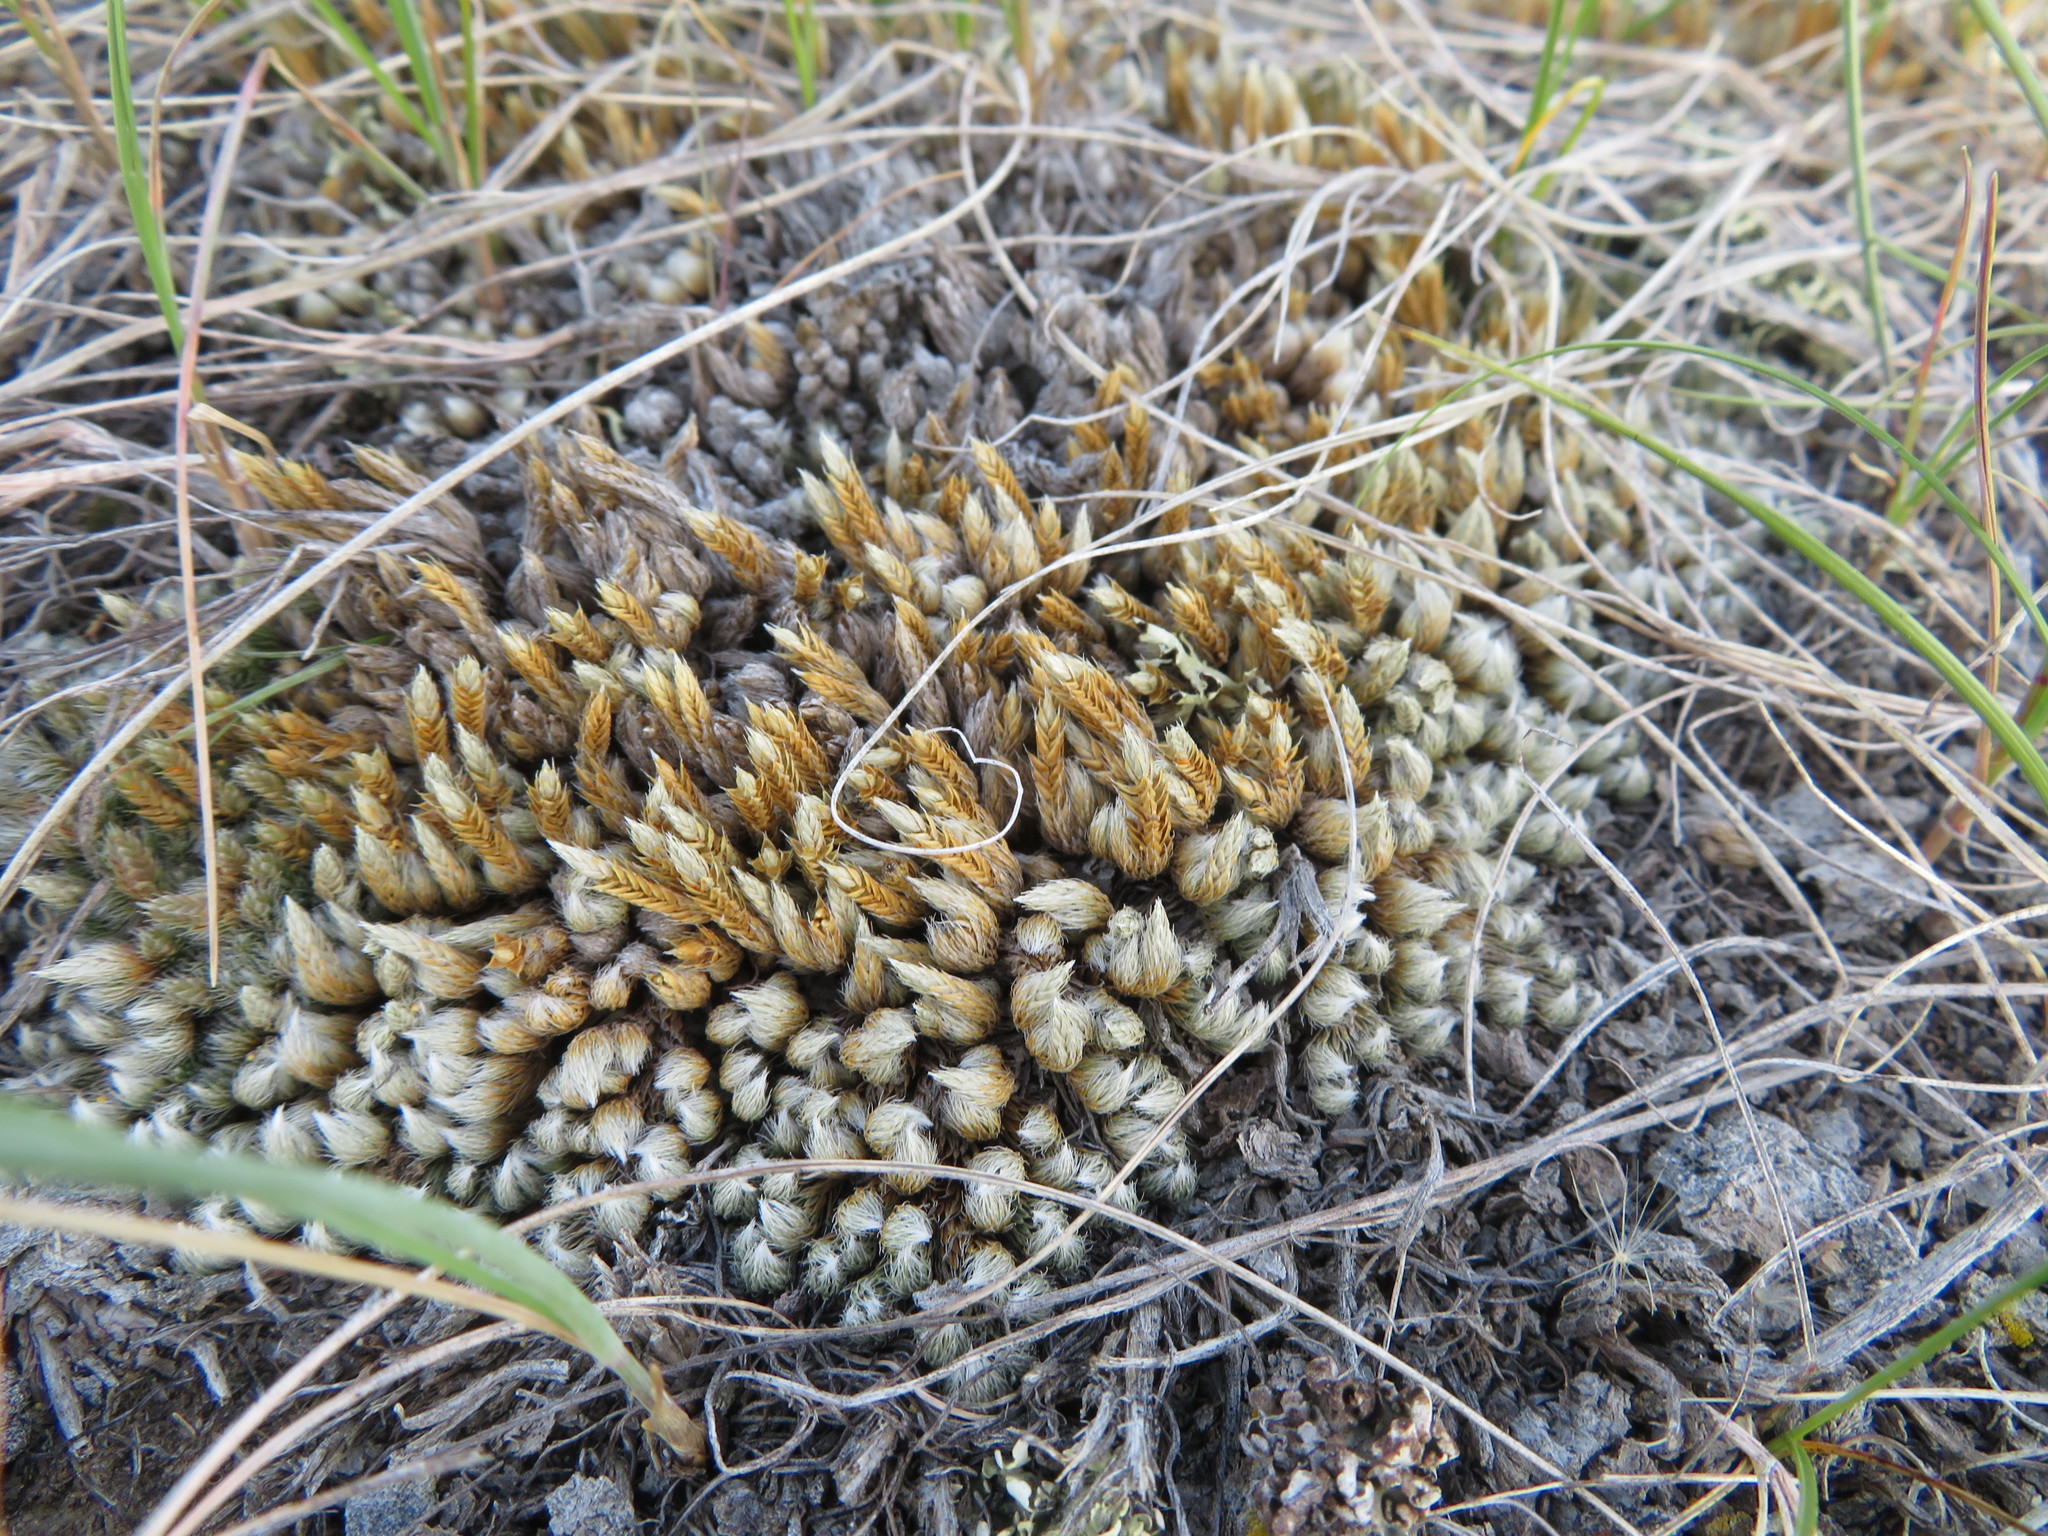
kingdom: Plantae
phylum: Tracheophyta
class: Lycopodiopsida
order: Selaginellales
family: Selaginellaceae
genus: Selaginella
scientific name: Selaginella densa
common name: Mountain spike-moss
